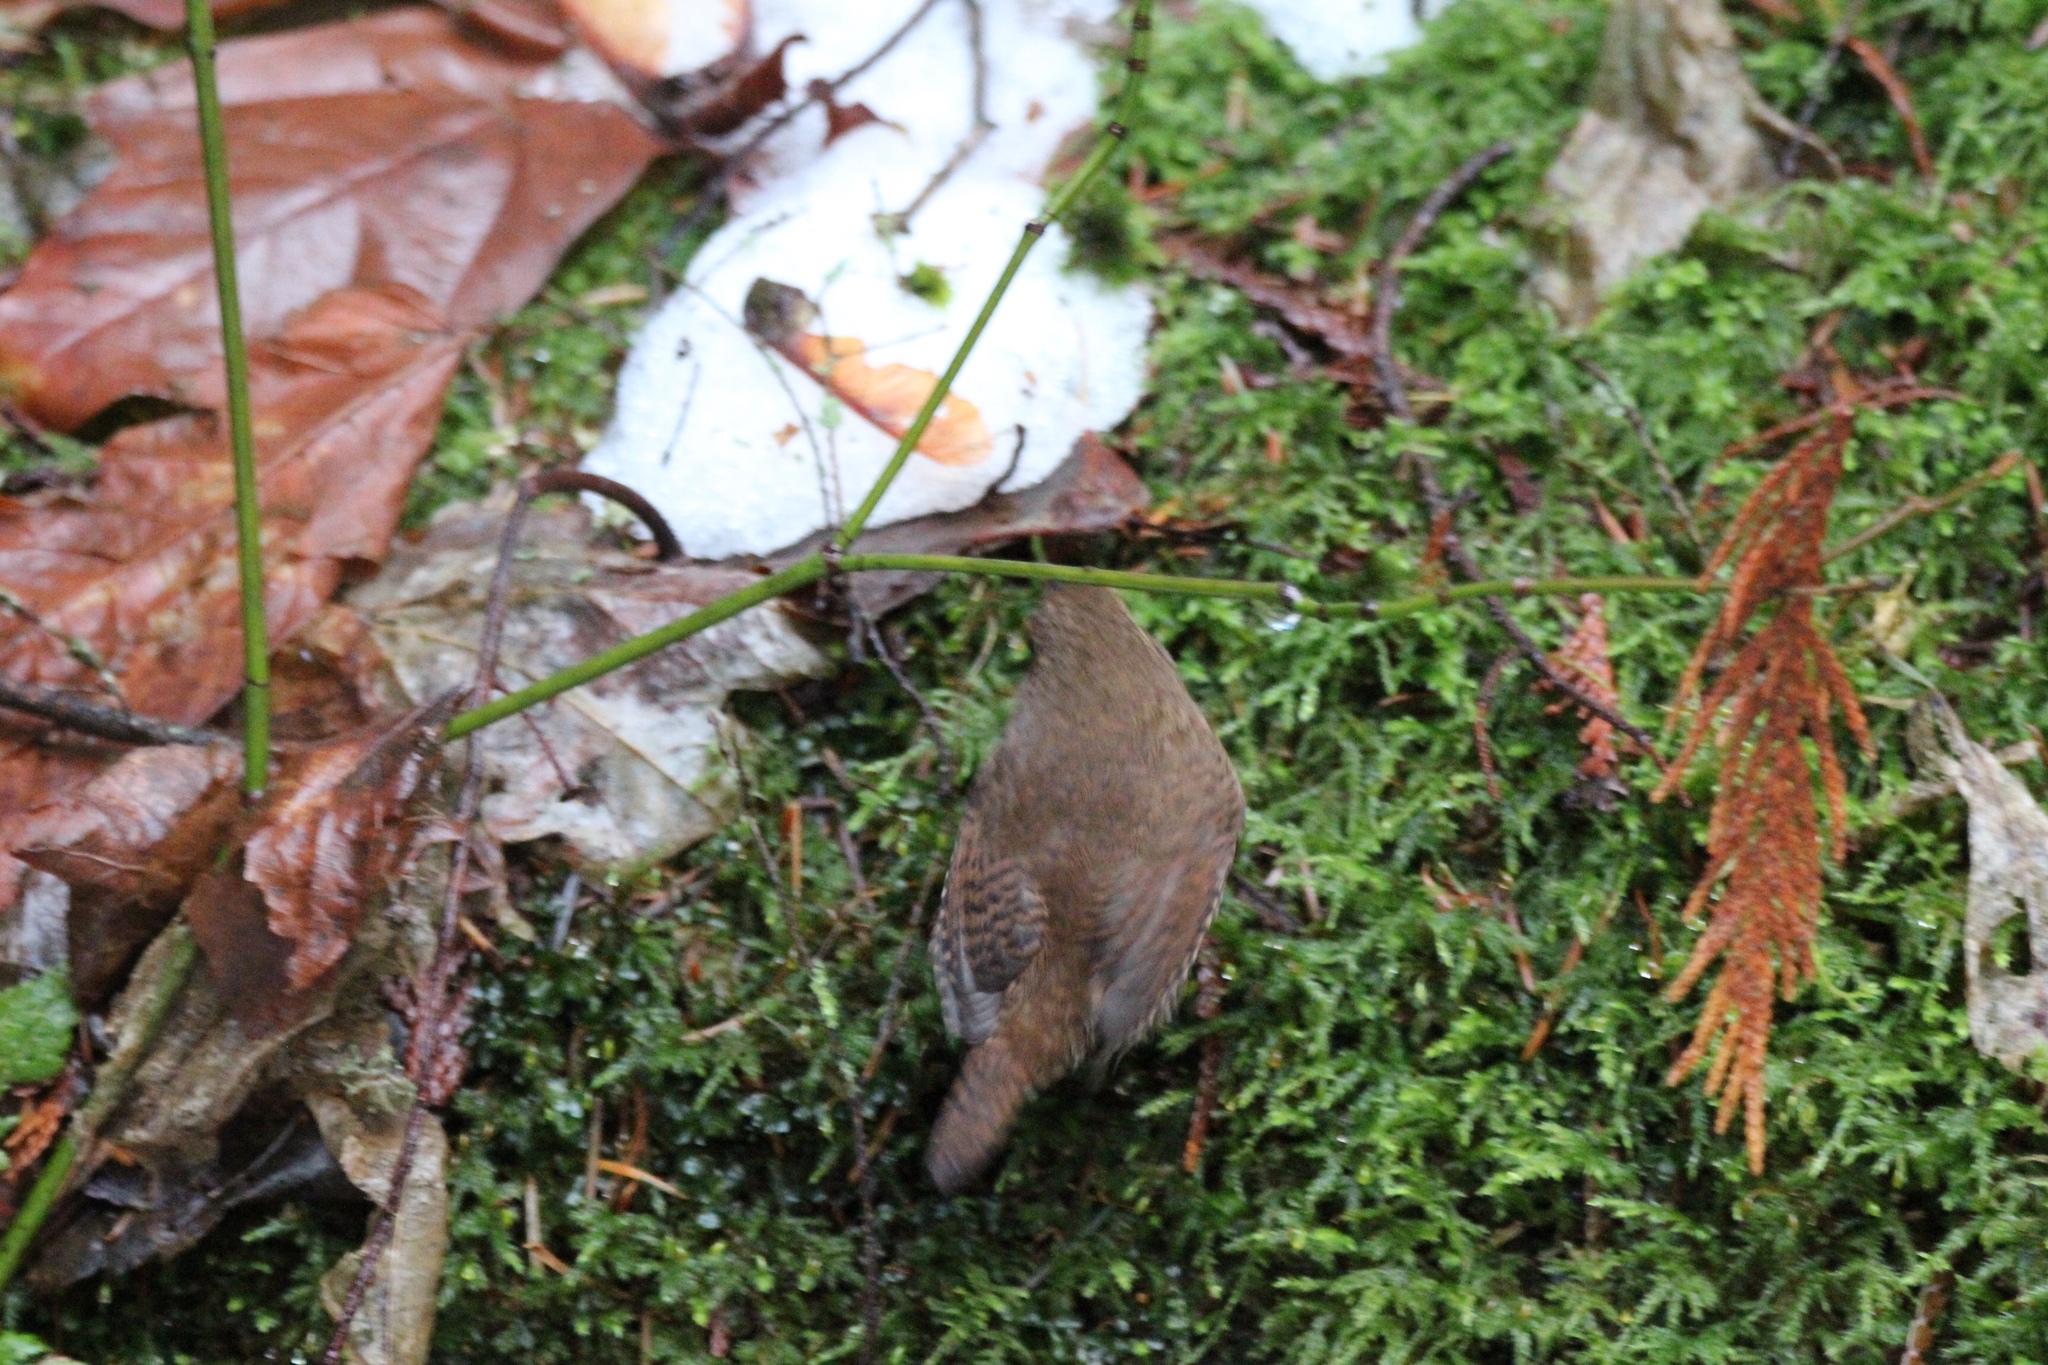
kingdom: Animalia
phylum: Chordata
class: Aves
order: Passeriformes
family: Troglodytidae
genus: Troglodytes
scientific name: Troglodytes pacificus
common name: Pacific wren
